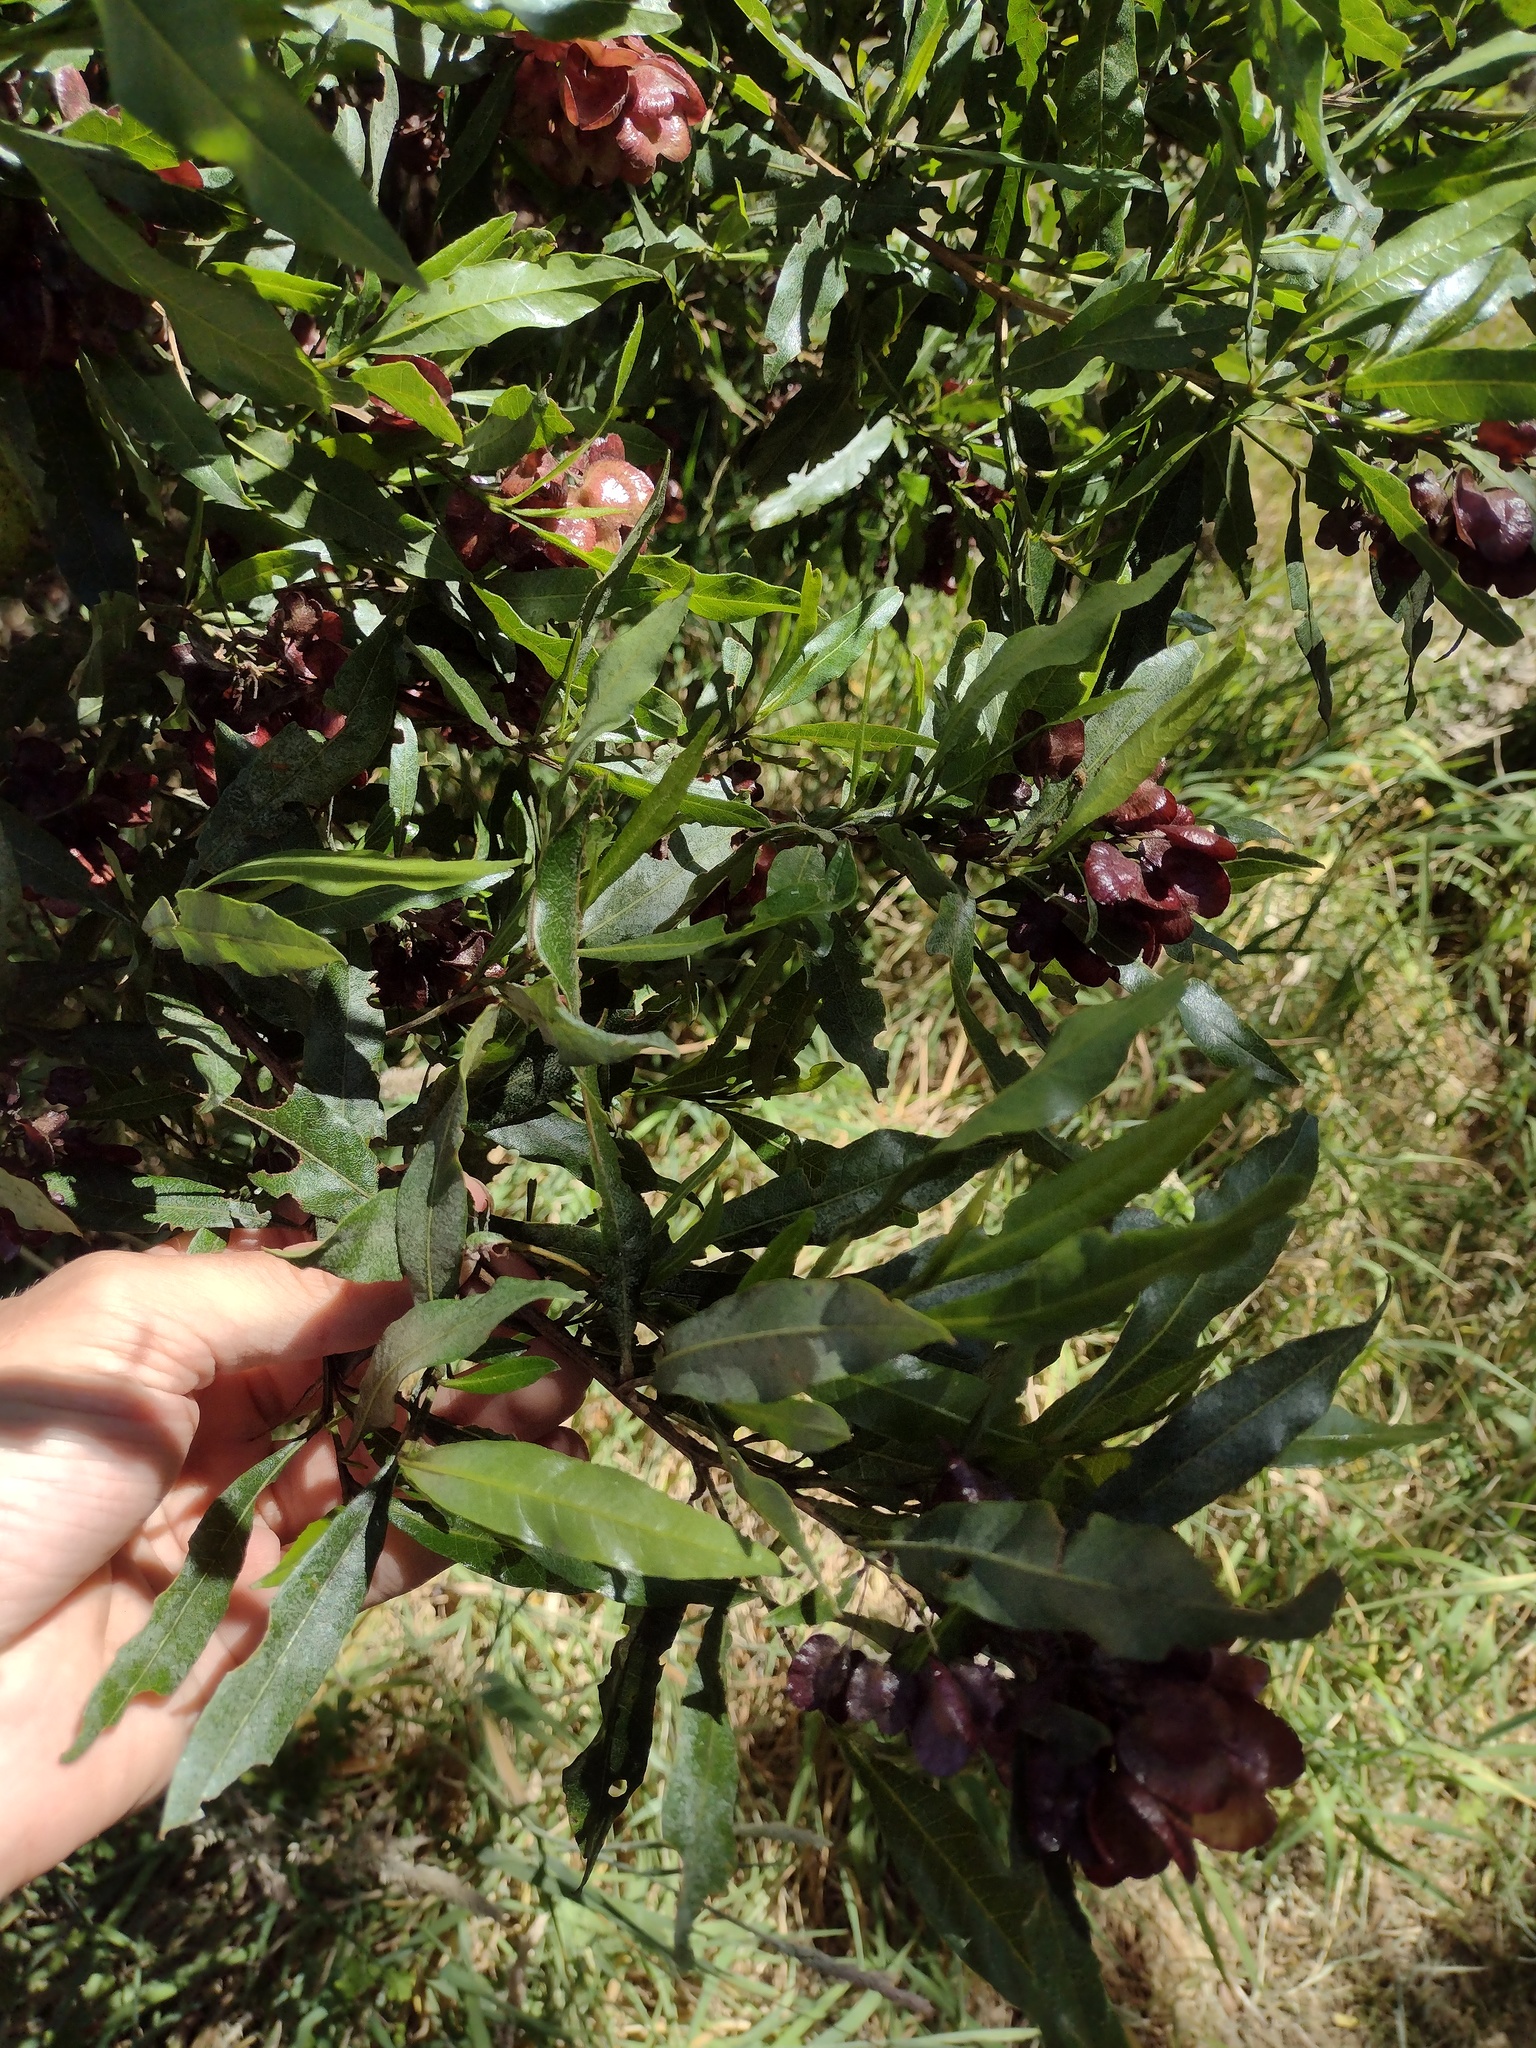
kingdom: Plantae
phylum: Tracheophyta
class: Magnoliopsida
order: Sapindales
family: Sapindaceae
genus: Dodonaea
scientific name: Dodonaea viscosa
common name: Hopbush
